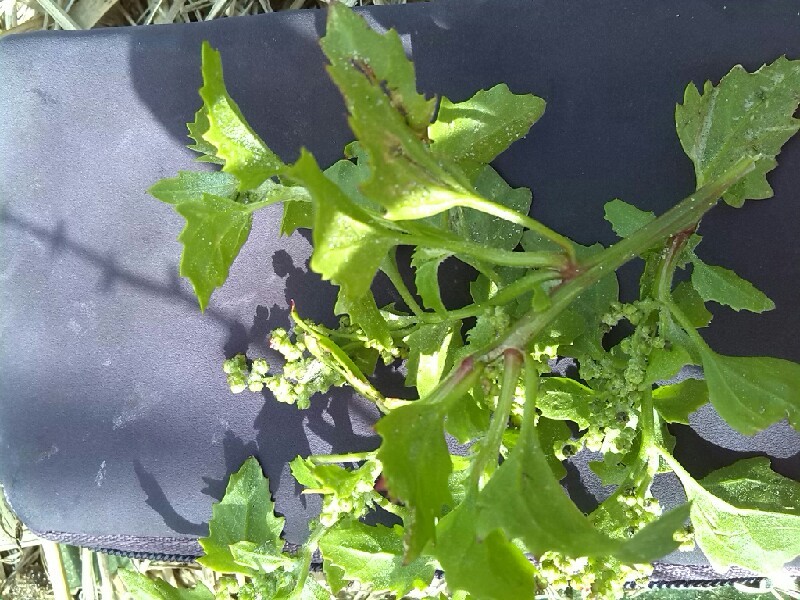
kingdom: Plantae
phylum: Tracheophyta
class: Magnoliopsida
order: Caryophyllales
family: Amaranthaceae
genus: Chenopodiastrum
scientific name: Chenopodiastrum murale
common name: Sowbane
